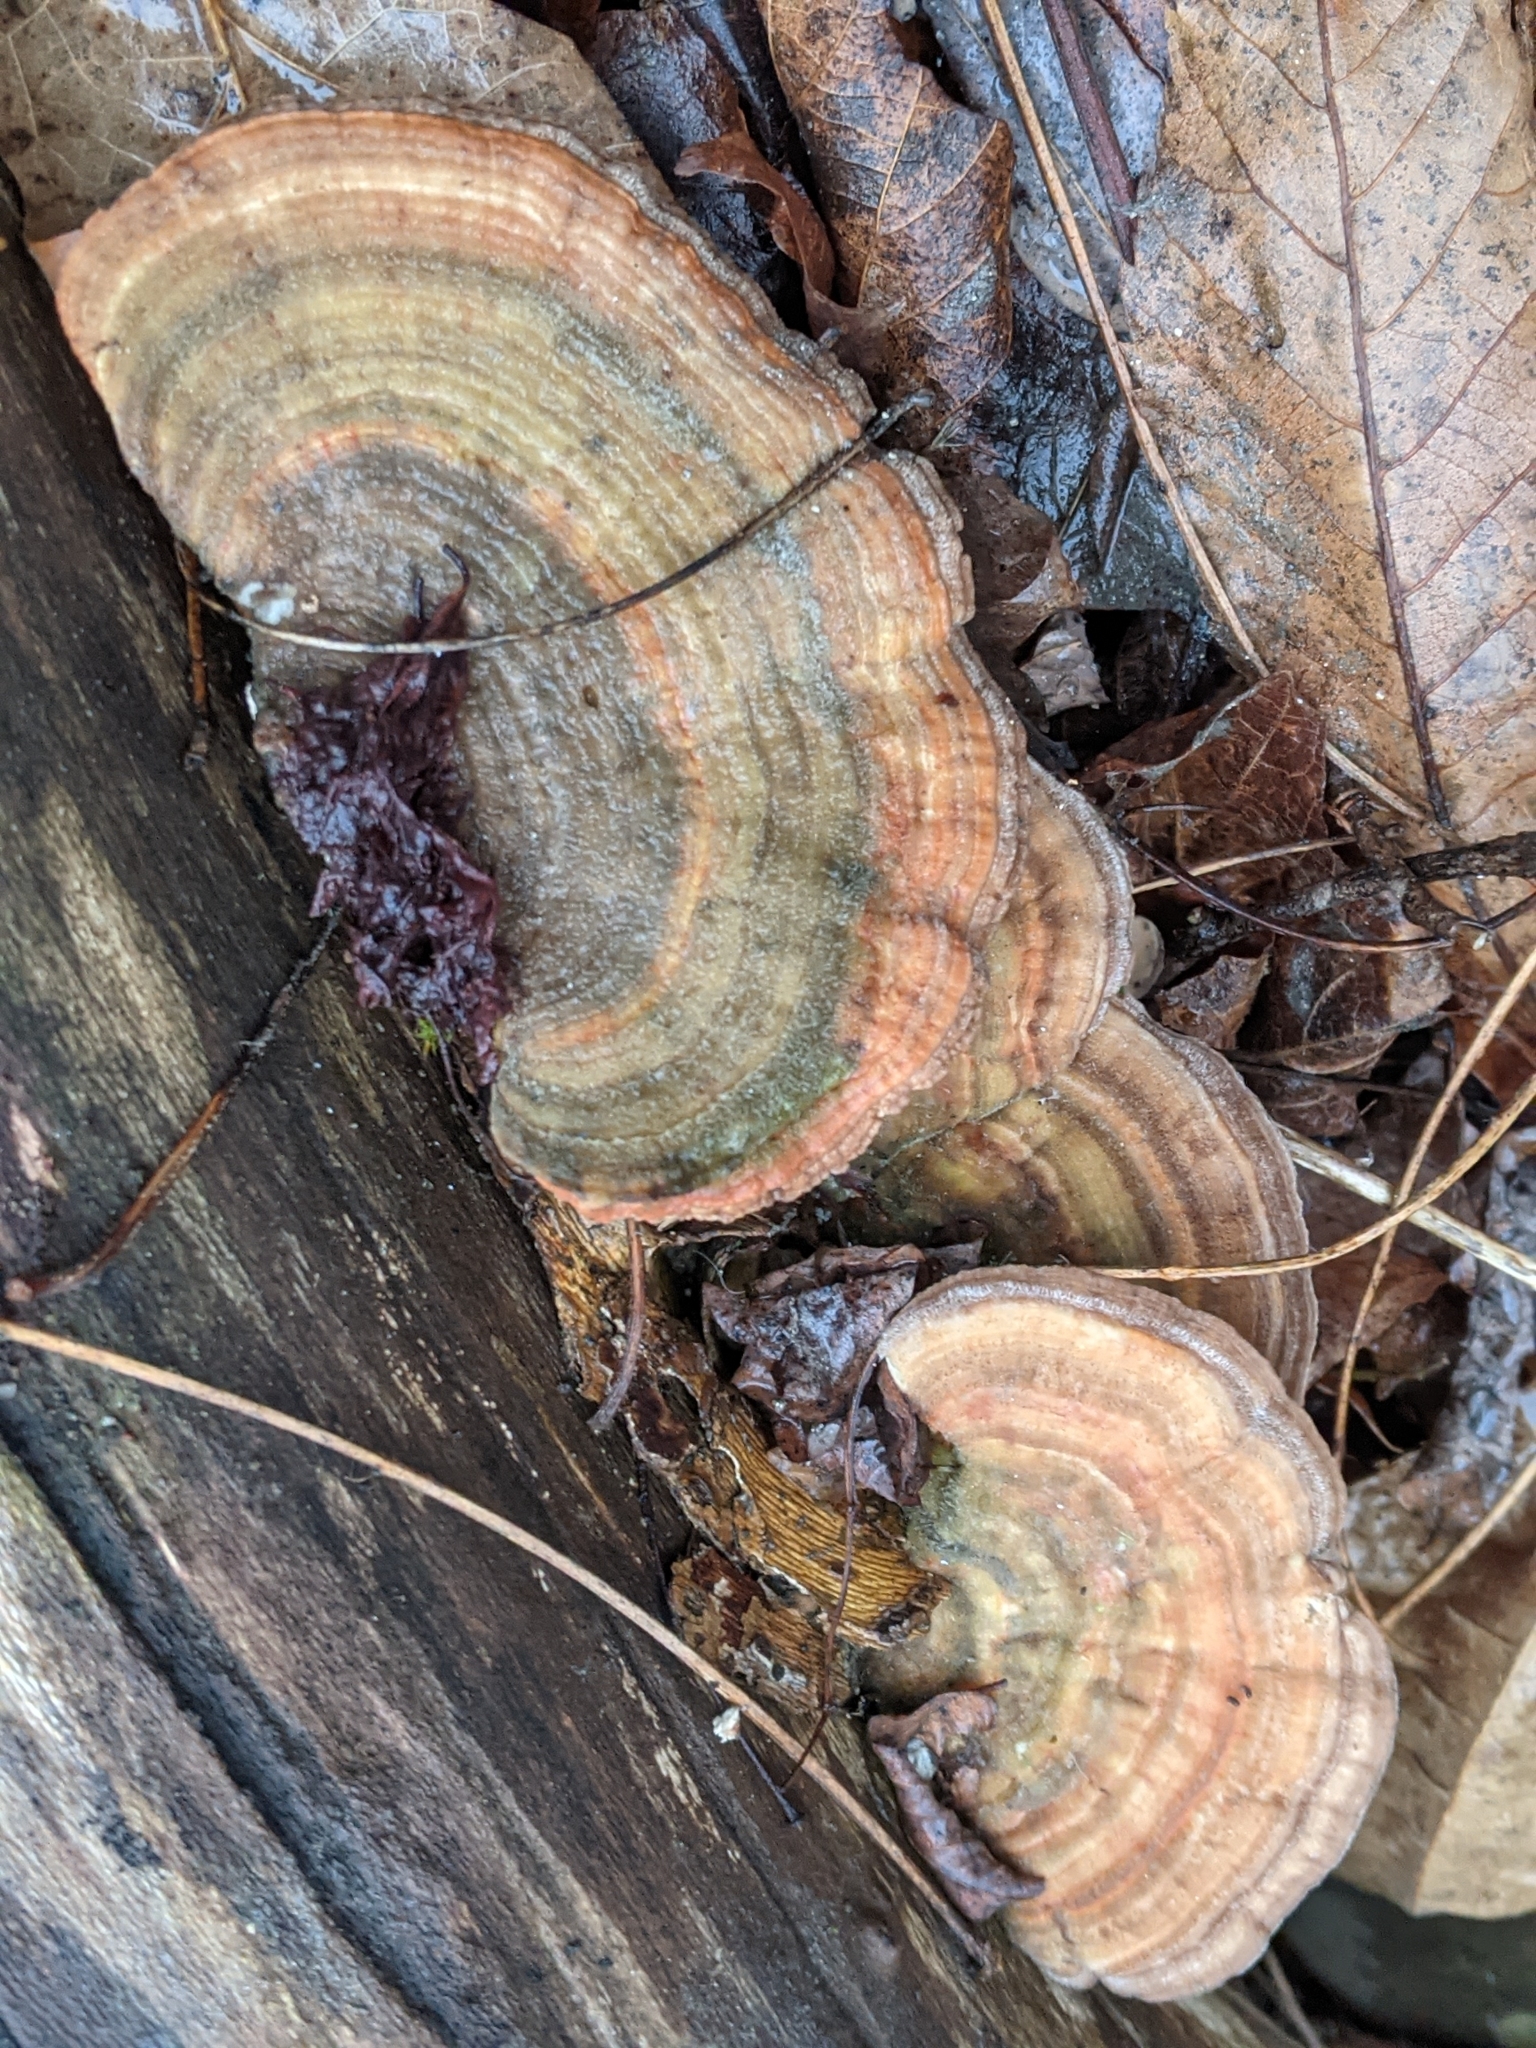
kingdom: Fungi
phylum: Basidiomycota
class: Agaricomycetes
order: Polyporales
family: Polyporaceae
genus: Lenzites
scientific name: Lenzites betulinus
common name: Birch mazegill
